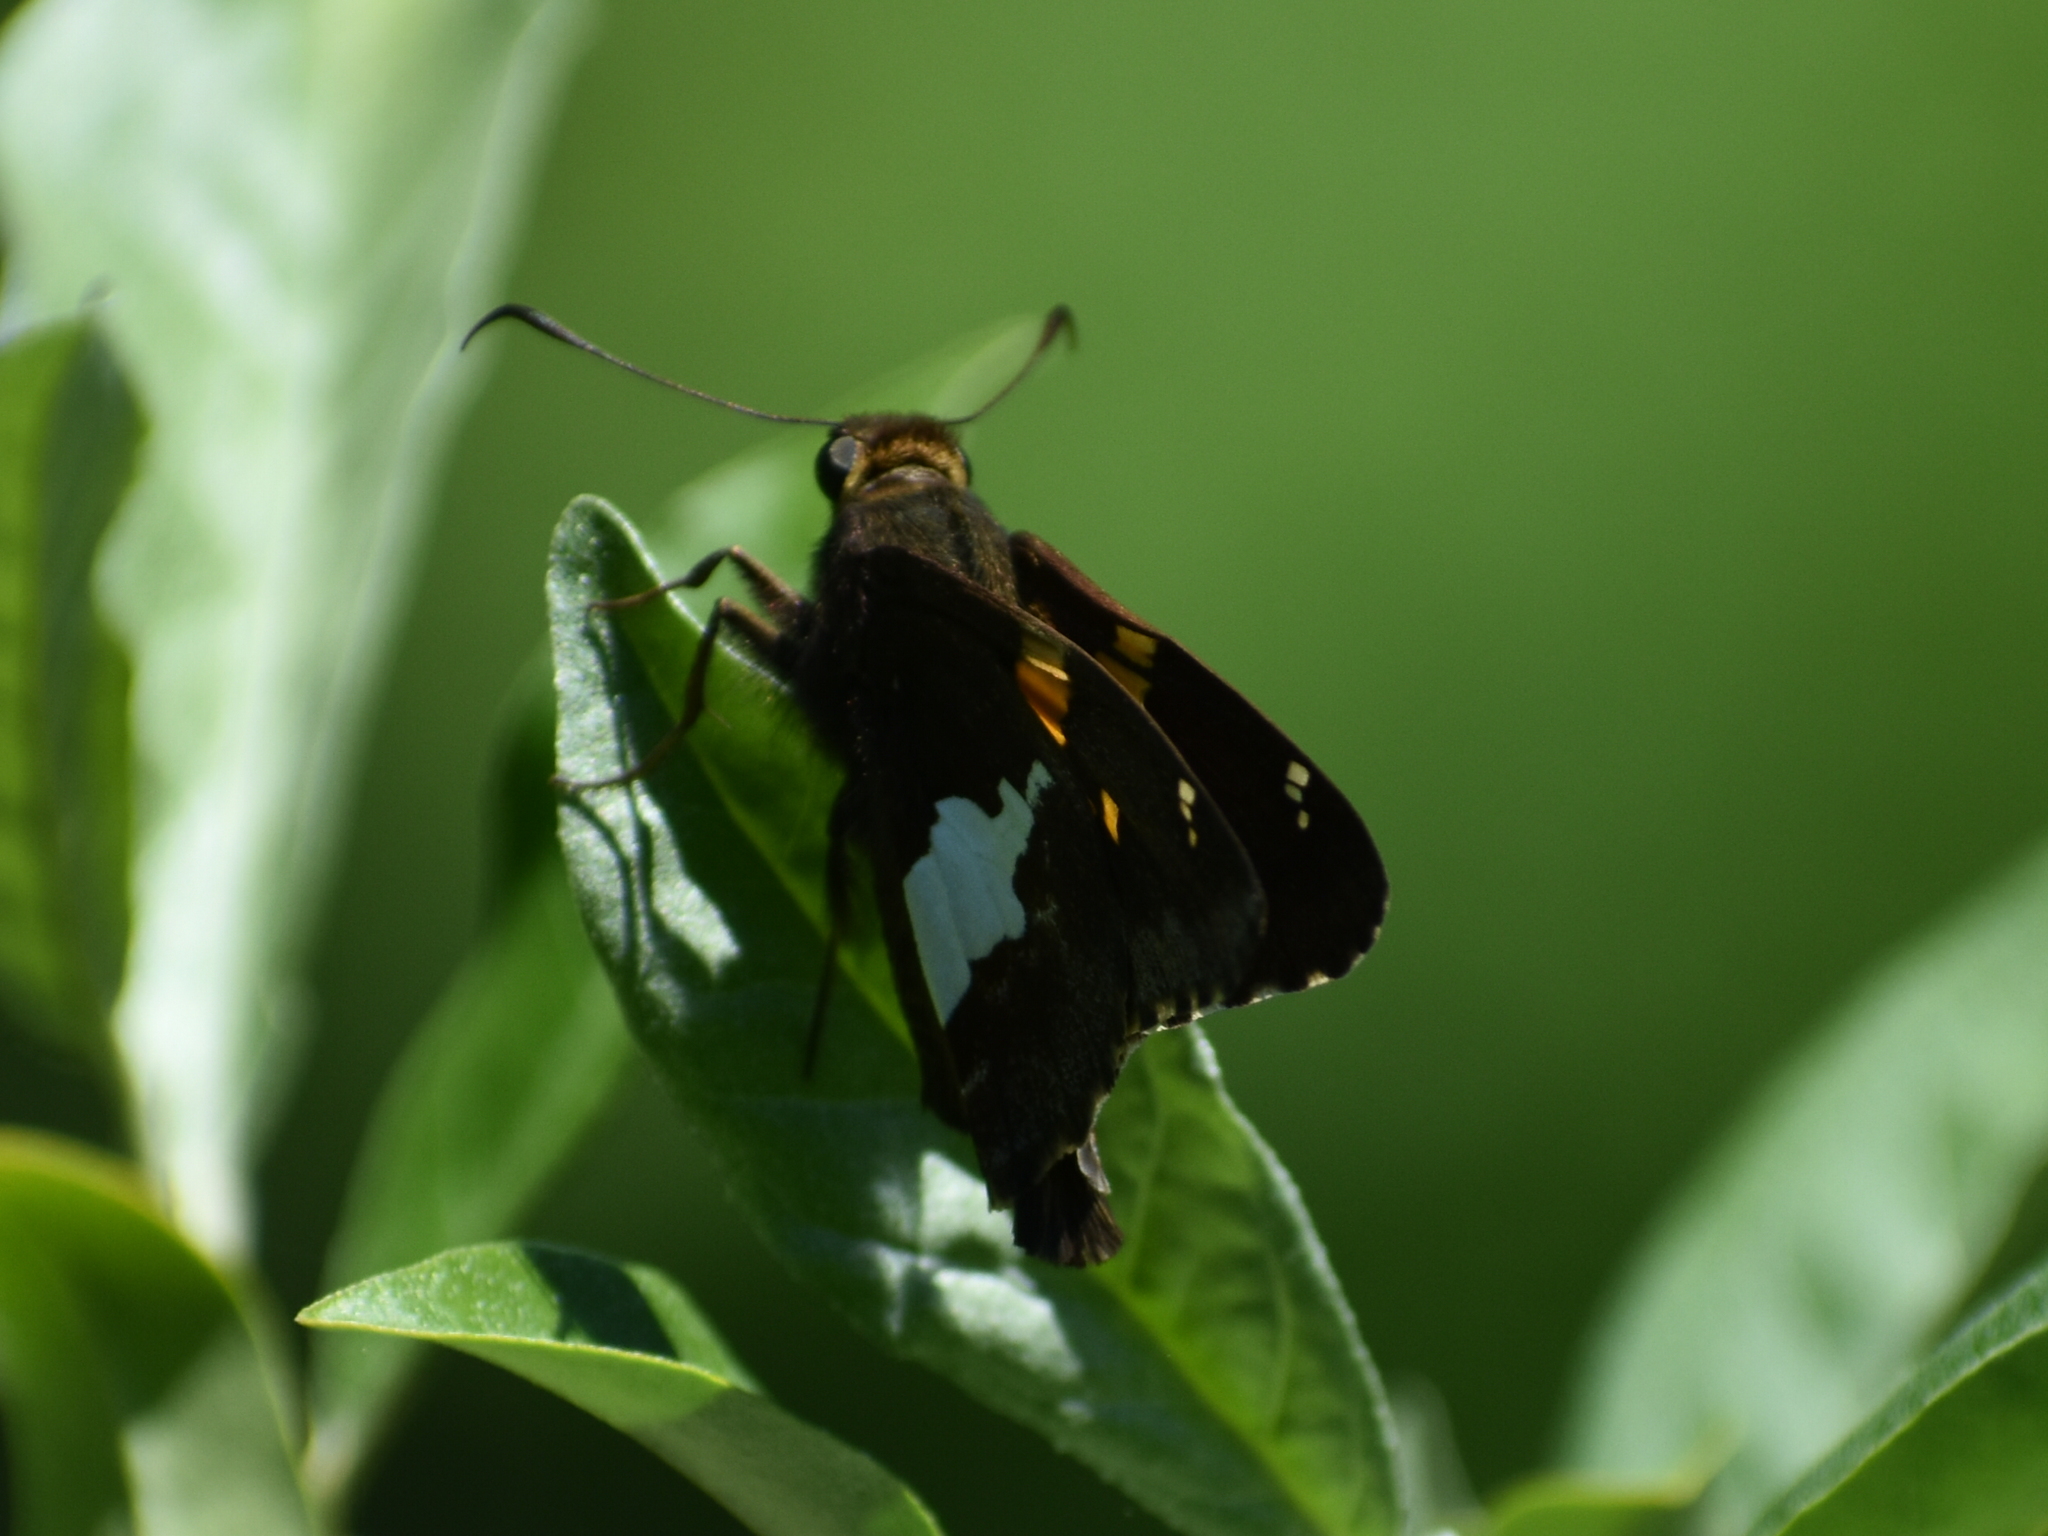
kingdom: Animalia
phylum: Arthropoda
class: Insecta
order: Lepidoptera
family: Hesperiidae
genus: Epargyreus
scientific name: Epargyreus clarus
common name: Silver-spotted skipper
